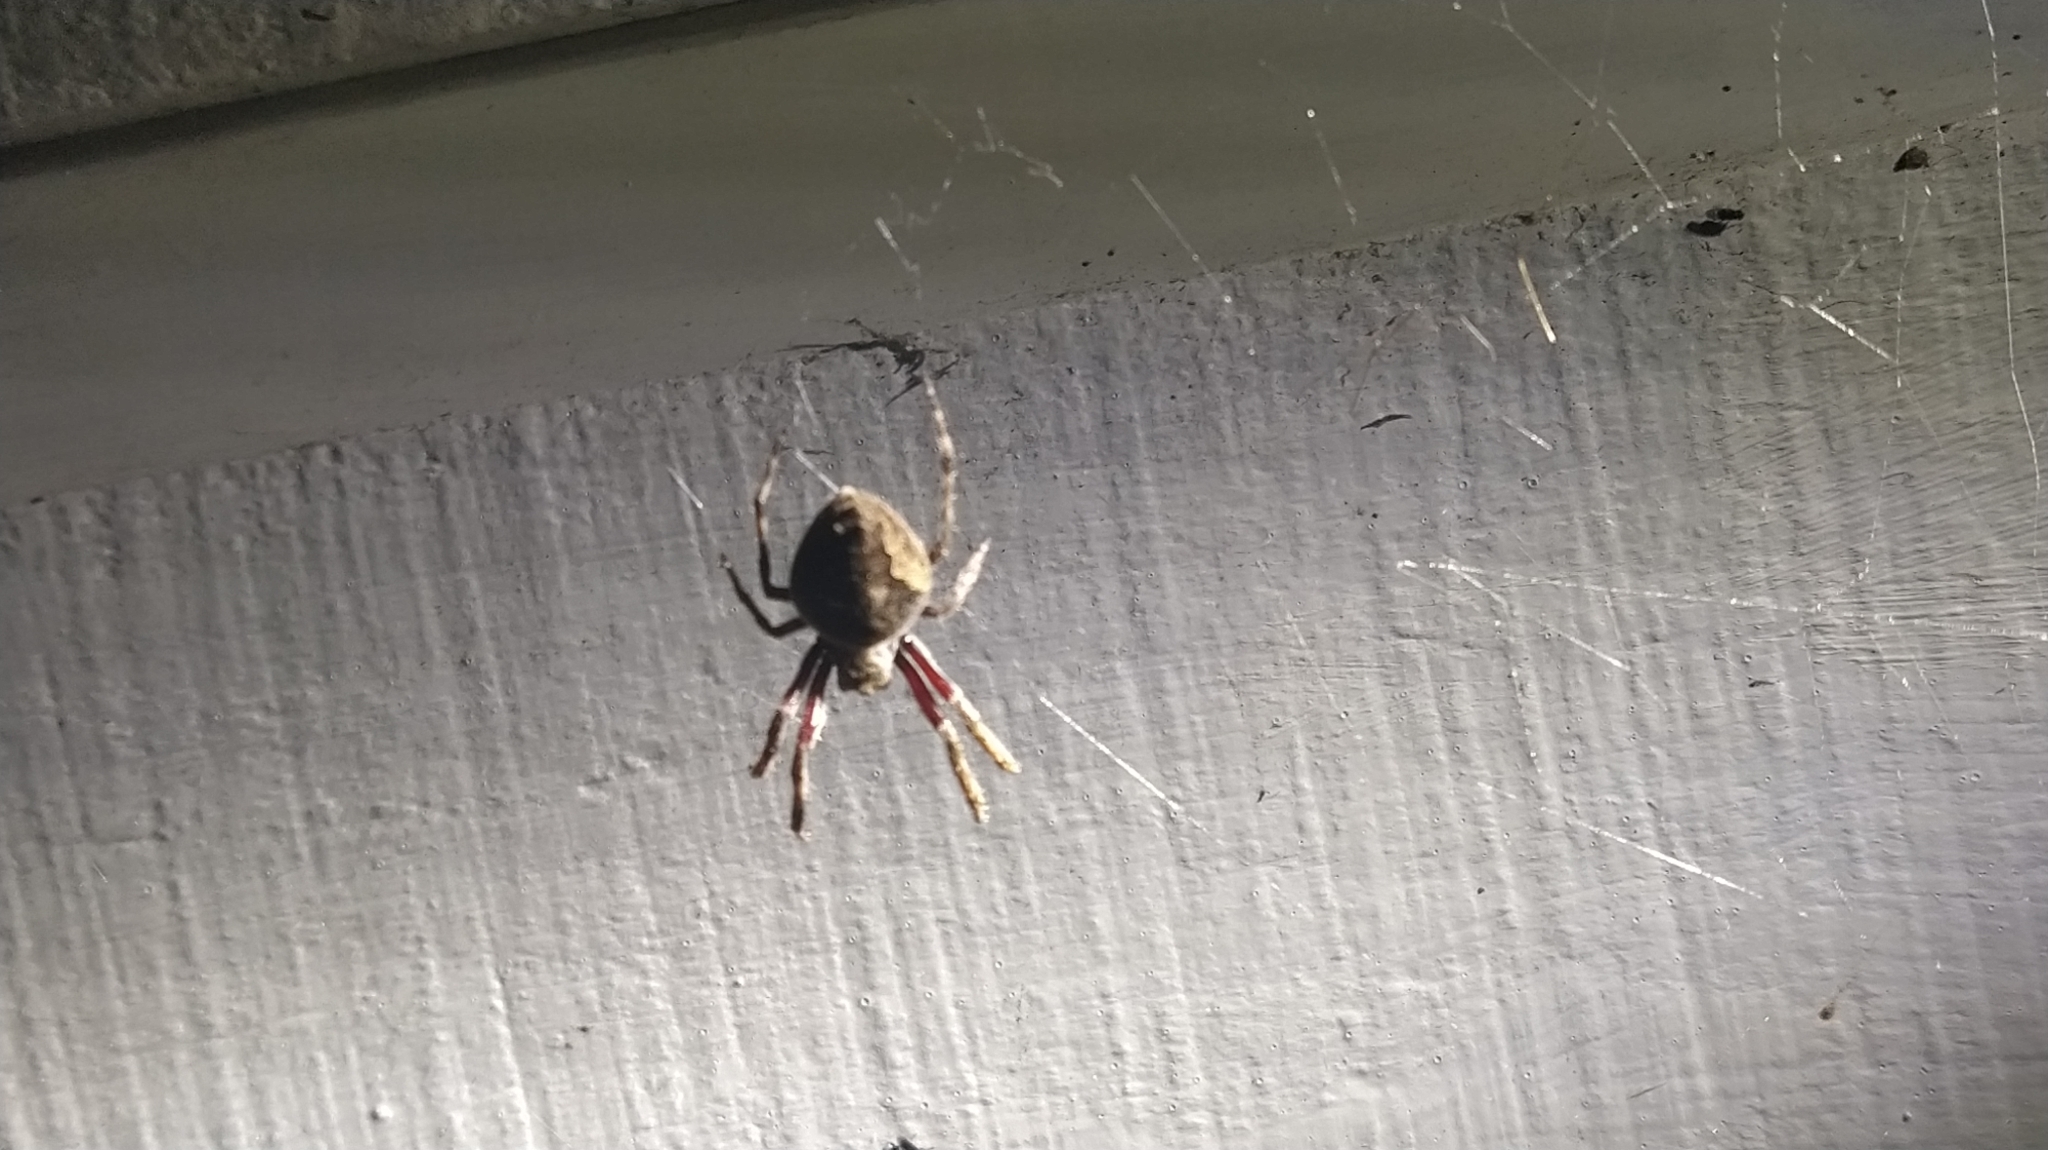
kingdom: Animalia
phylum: Arthropoda
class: Arachnida
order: Araneae
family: Araneidae
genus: Eriophora
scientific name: Eriophora pustulosa
